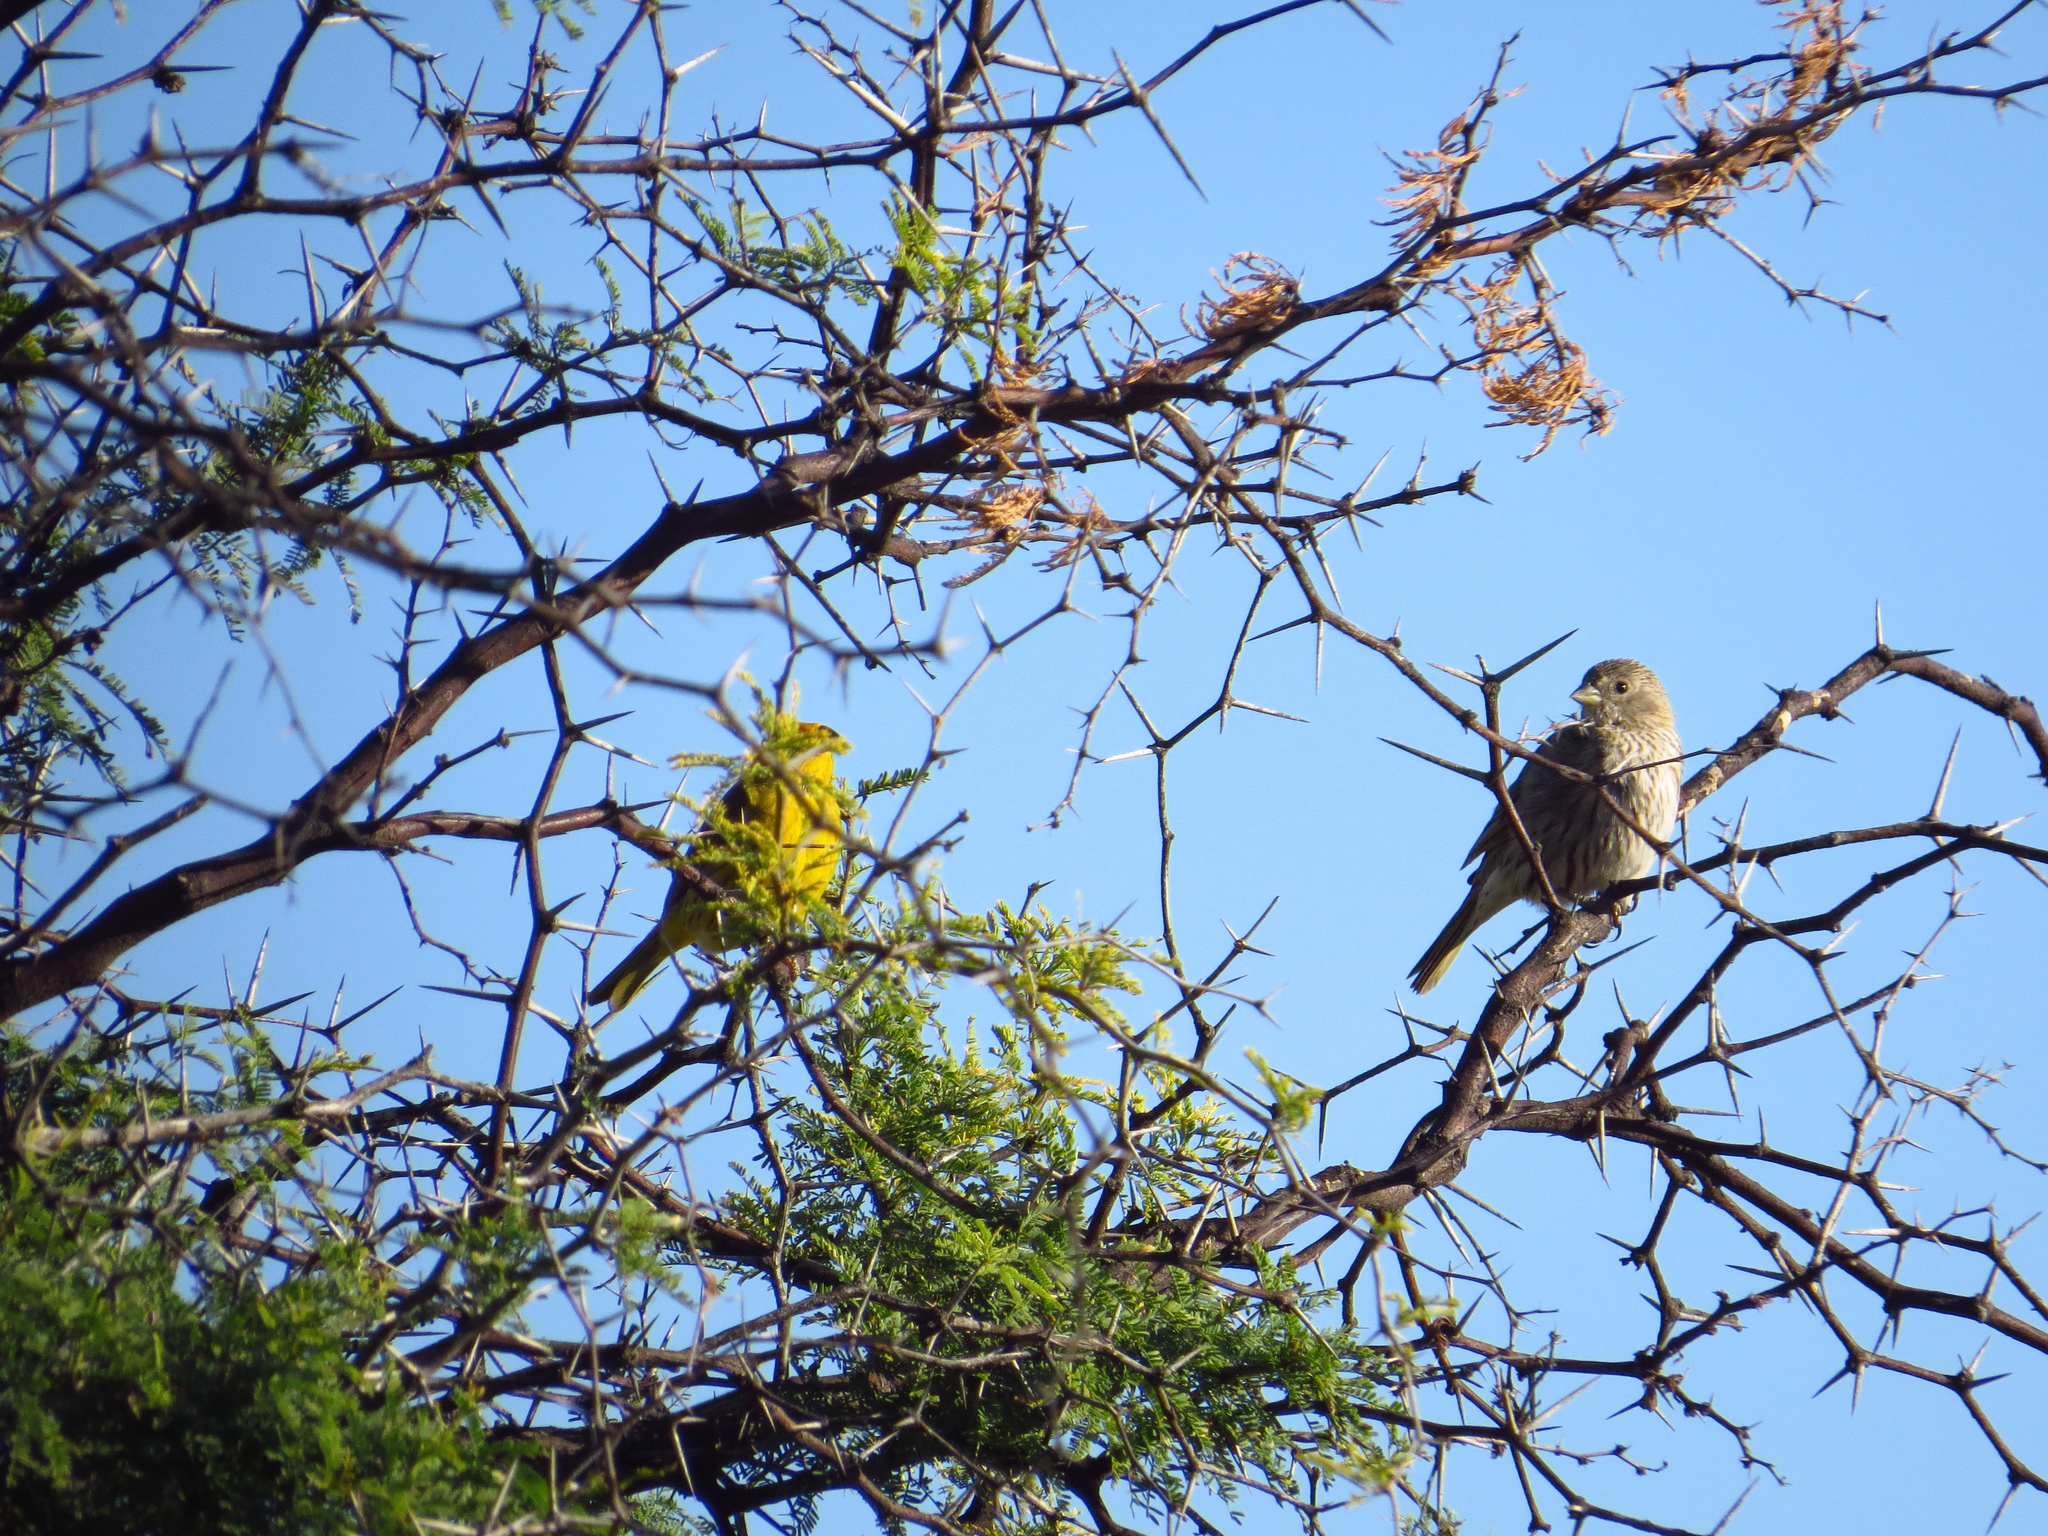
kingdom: Animalia
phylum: Chordata
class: Aves
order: Passeriformes
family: Thraupidae
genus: Sicalis
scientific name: Sicalis flaveola
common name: Saffron finch
